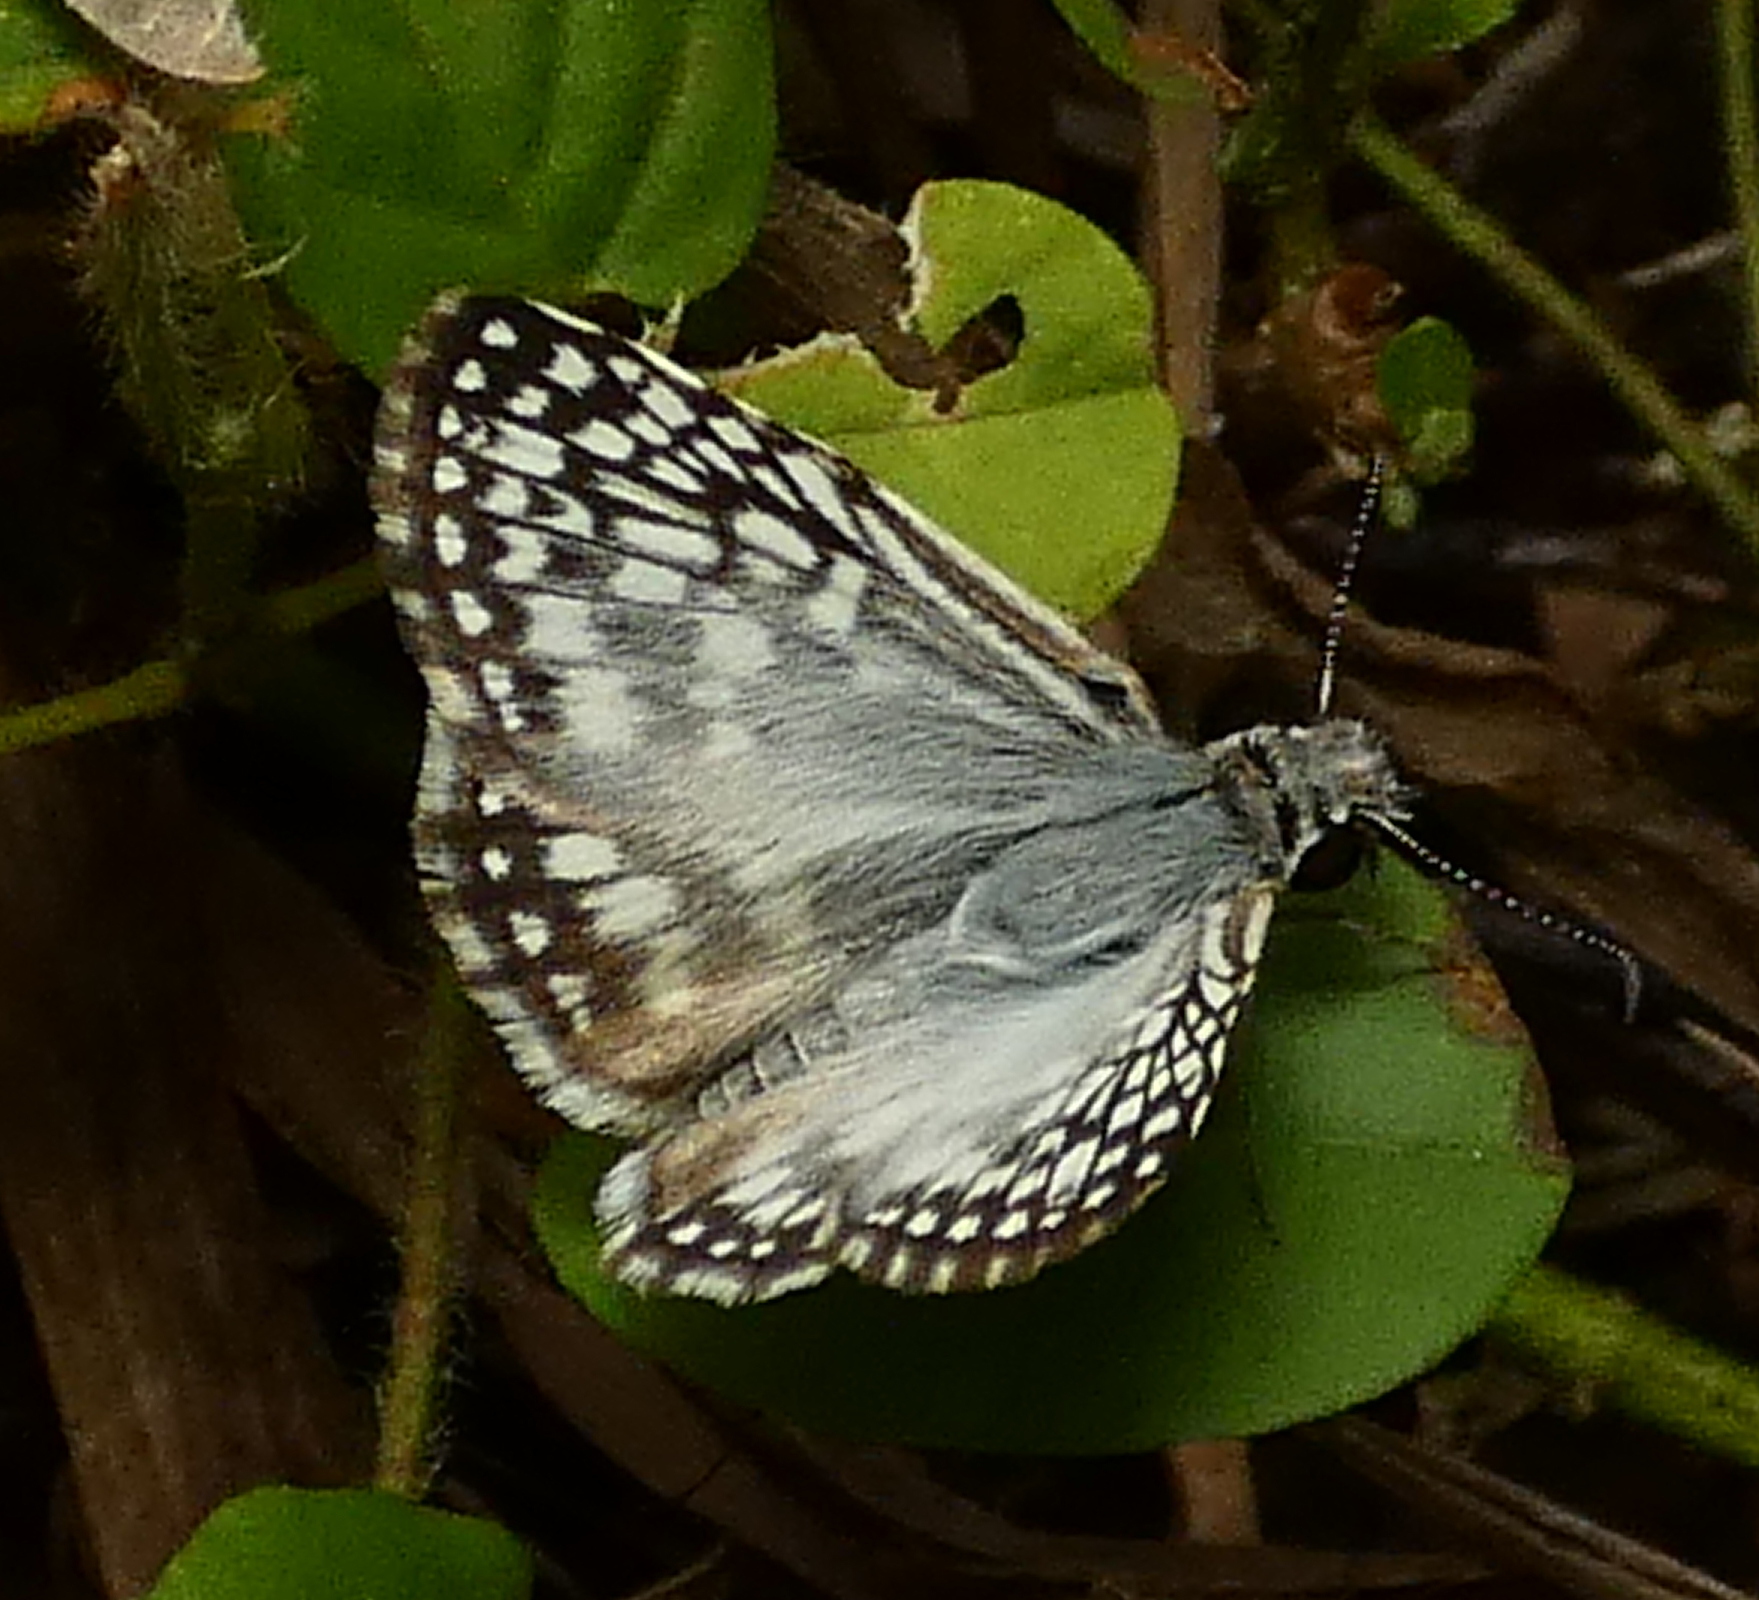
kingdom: Animalia
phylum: Arthropoda
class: Insecta
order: Lepidoptera
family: Hesperiidae
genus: Pyrgus
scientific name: Pyrgus oileus
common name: Tropical checkered-skipper
